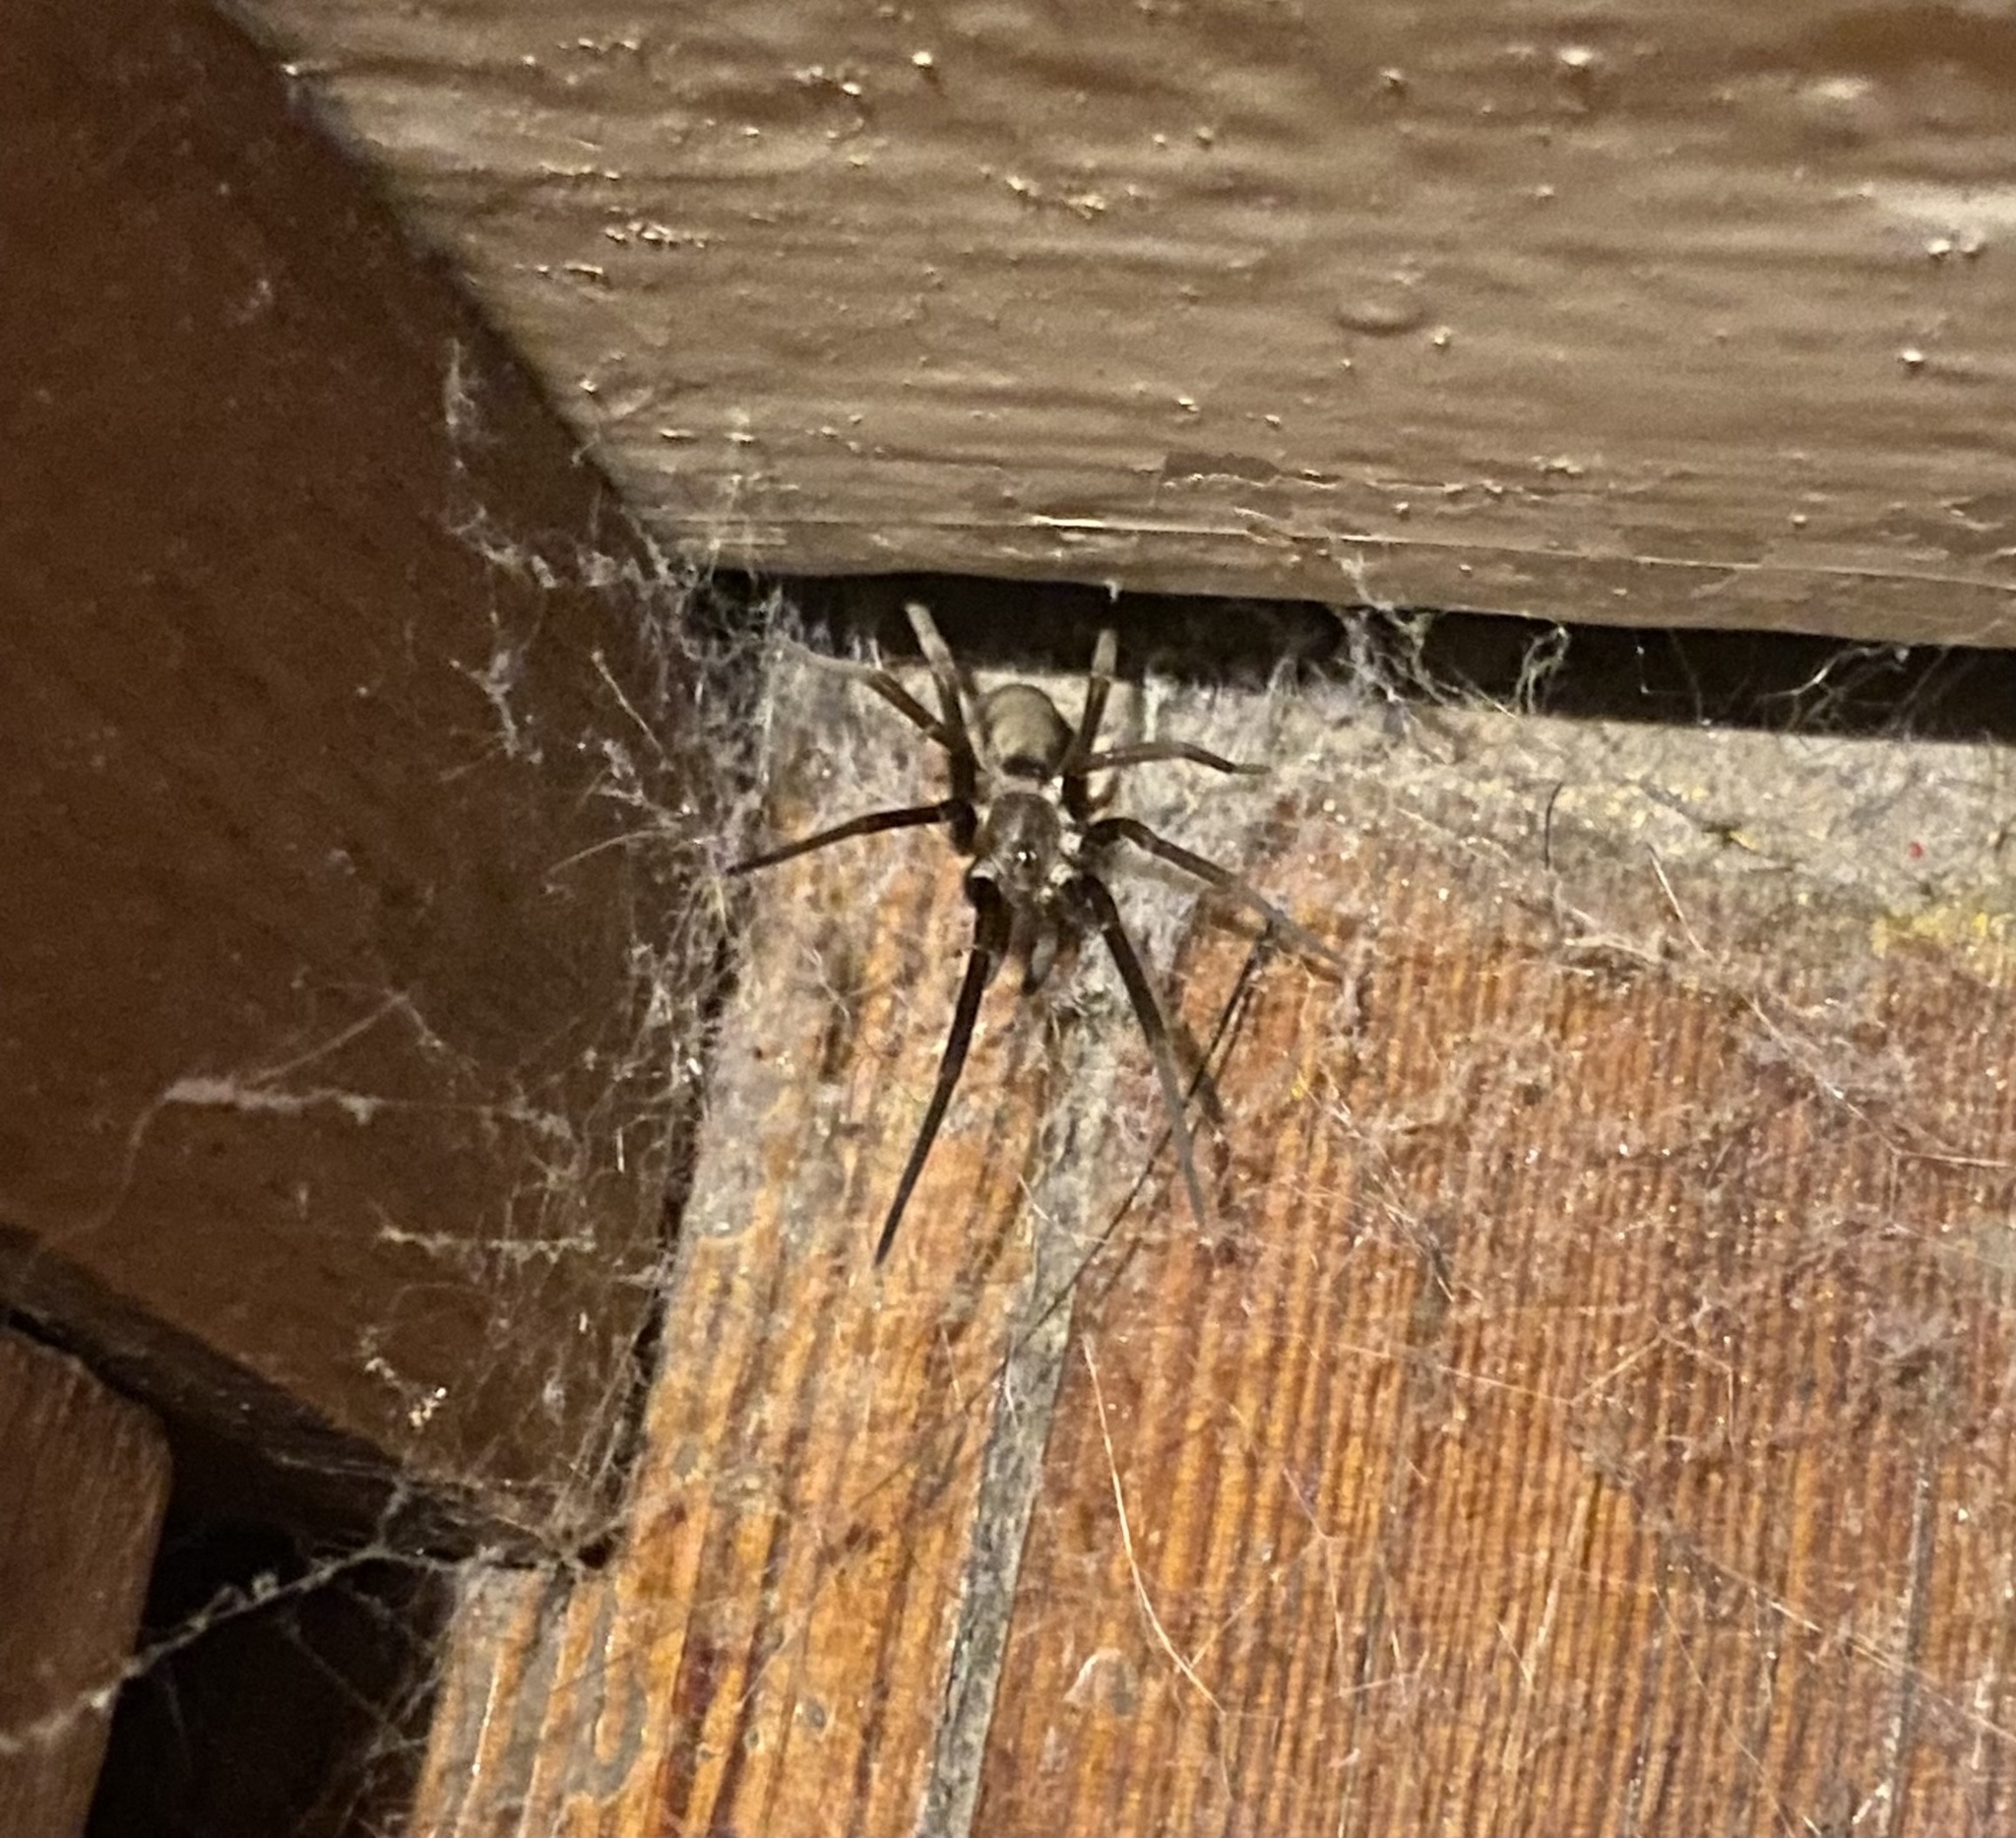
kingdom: Animalia
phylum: Arthropoda
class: Arachnida
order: Araneae
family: Filistatidae
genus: Kukulcania
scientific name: Kukulcania hibernalis
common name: Crevice weaver
